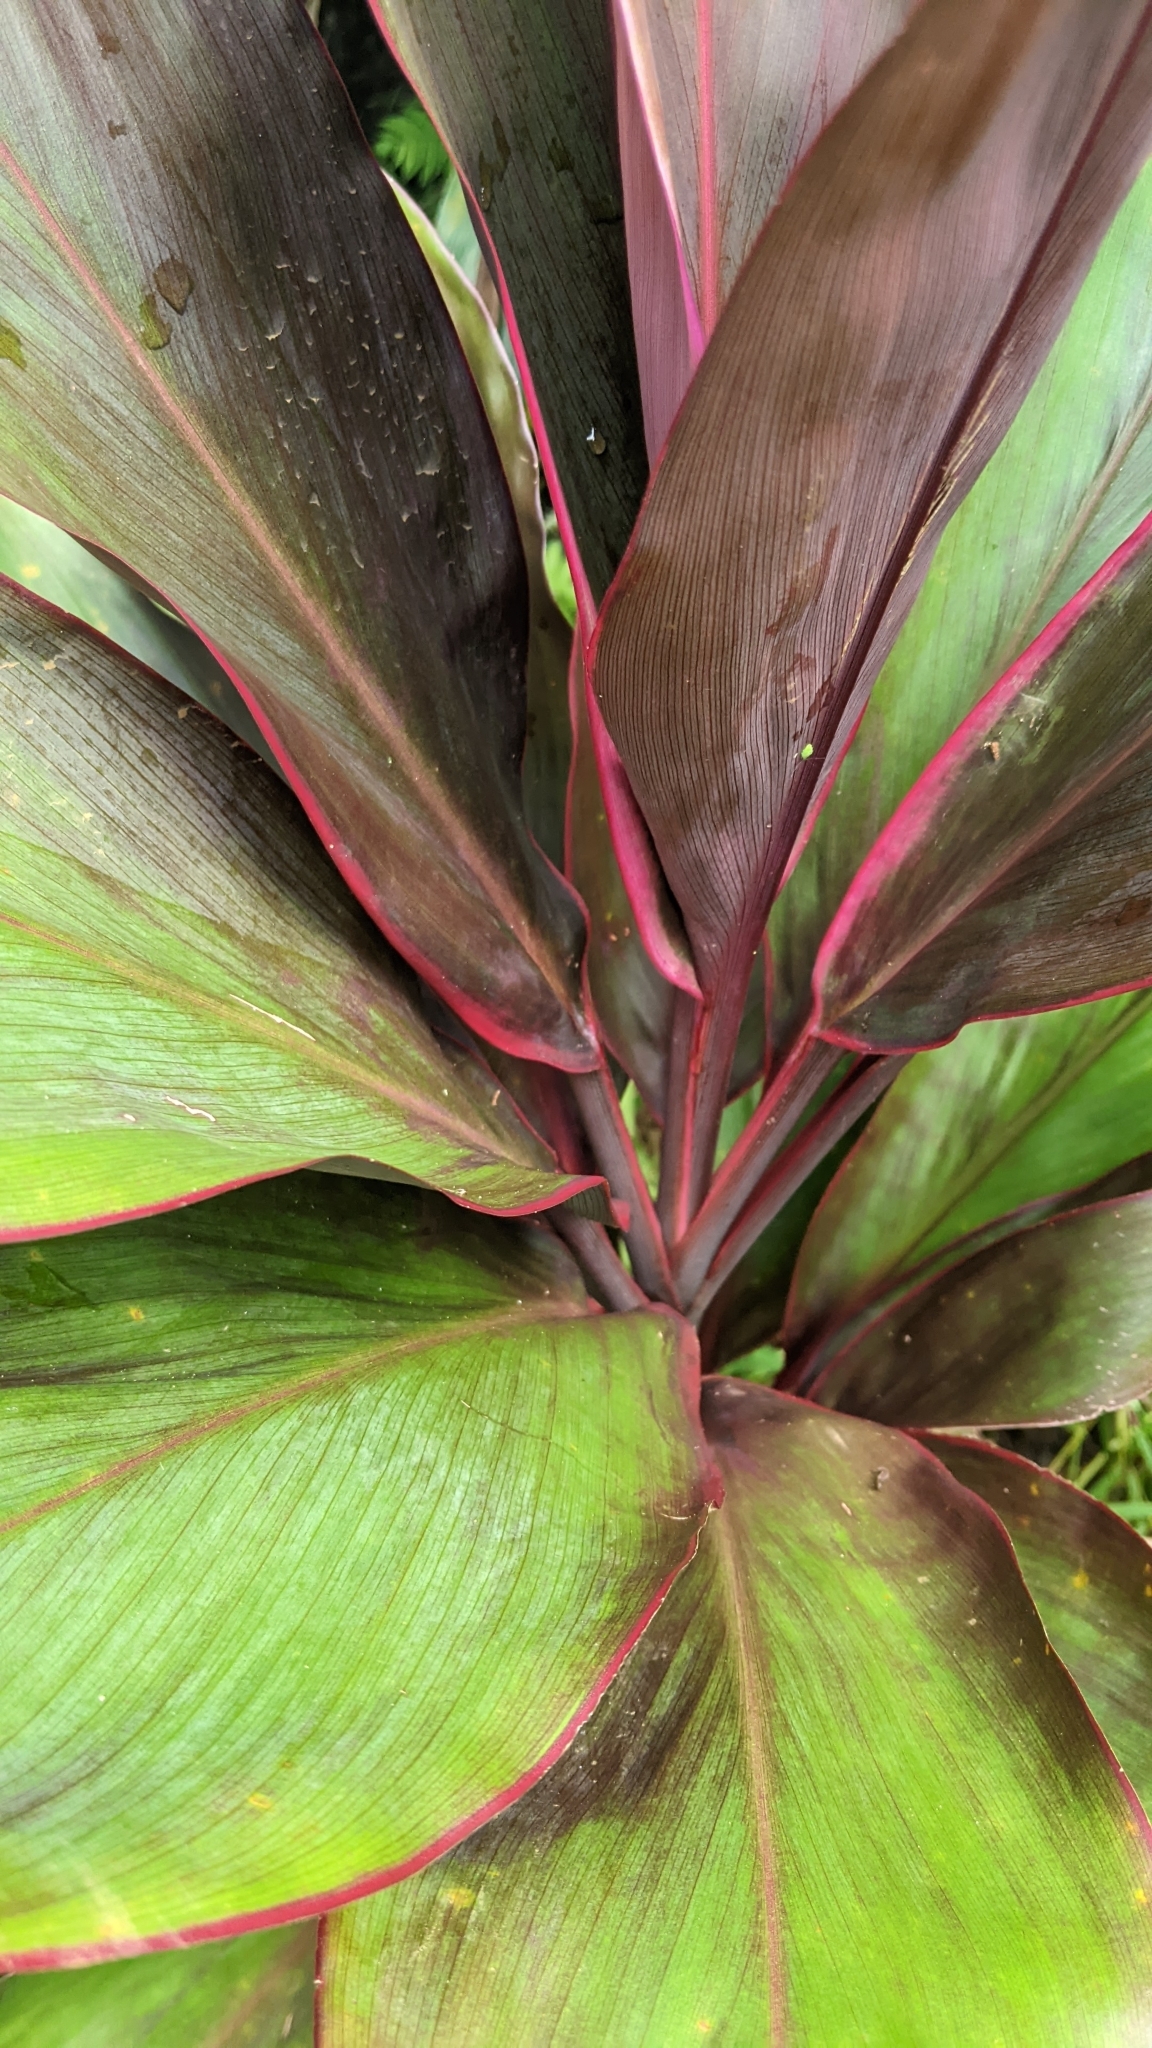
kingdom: Plantae
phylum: Tracheophyta
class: Liliopsida
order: Asparagales
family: Asparagaceae
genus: Cordyline
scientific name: Cordyline fruticosa
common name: Good-luck-plant
